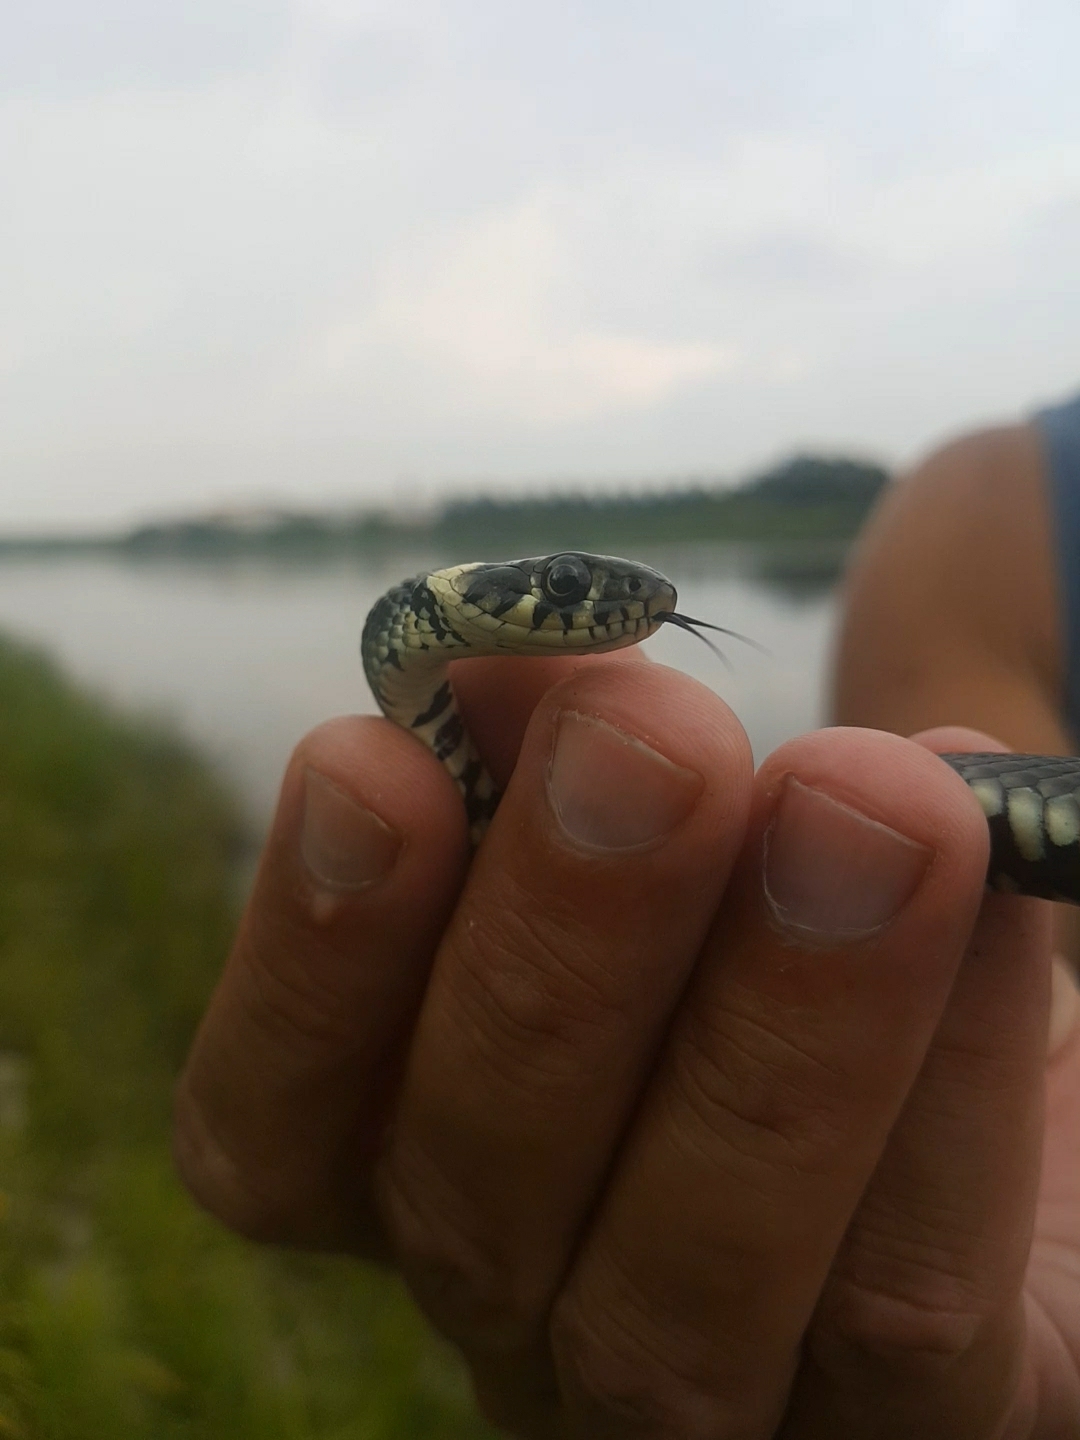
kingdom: Animalia
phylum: Chordata
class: Squamata
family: Colubridae
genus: Natrix
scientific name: Natrix natrix
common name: Grass snake
